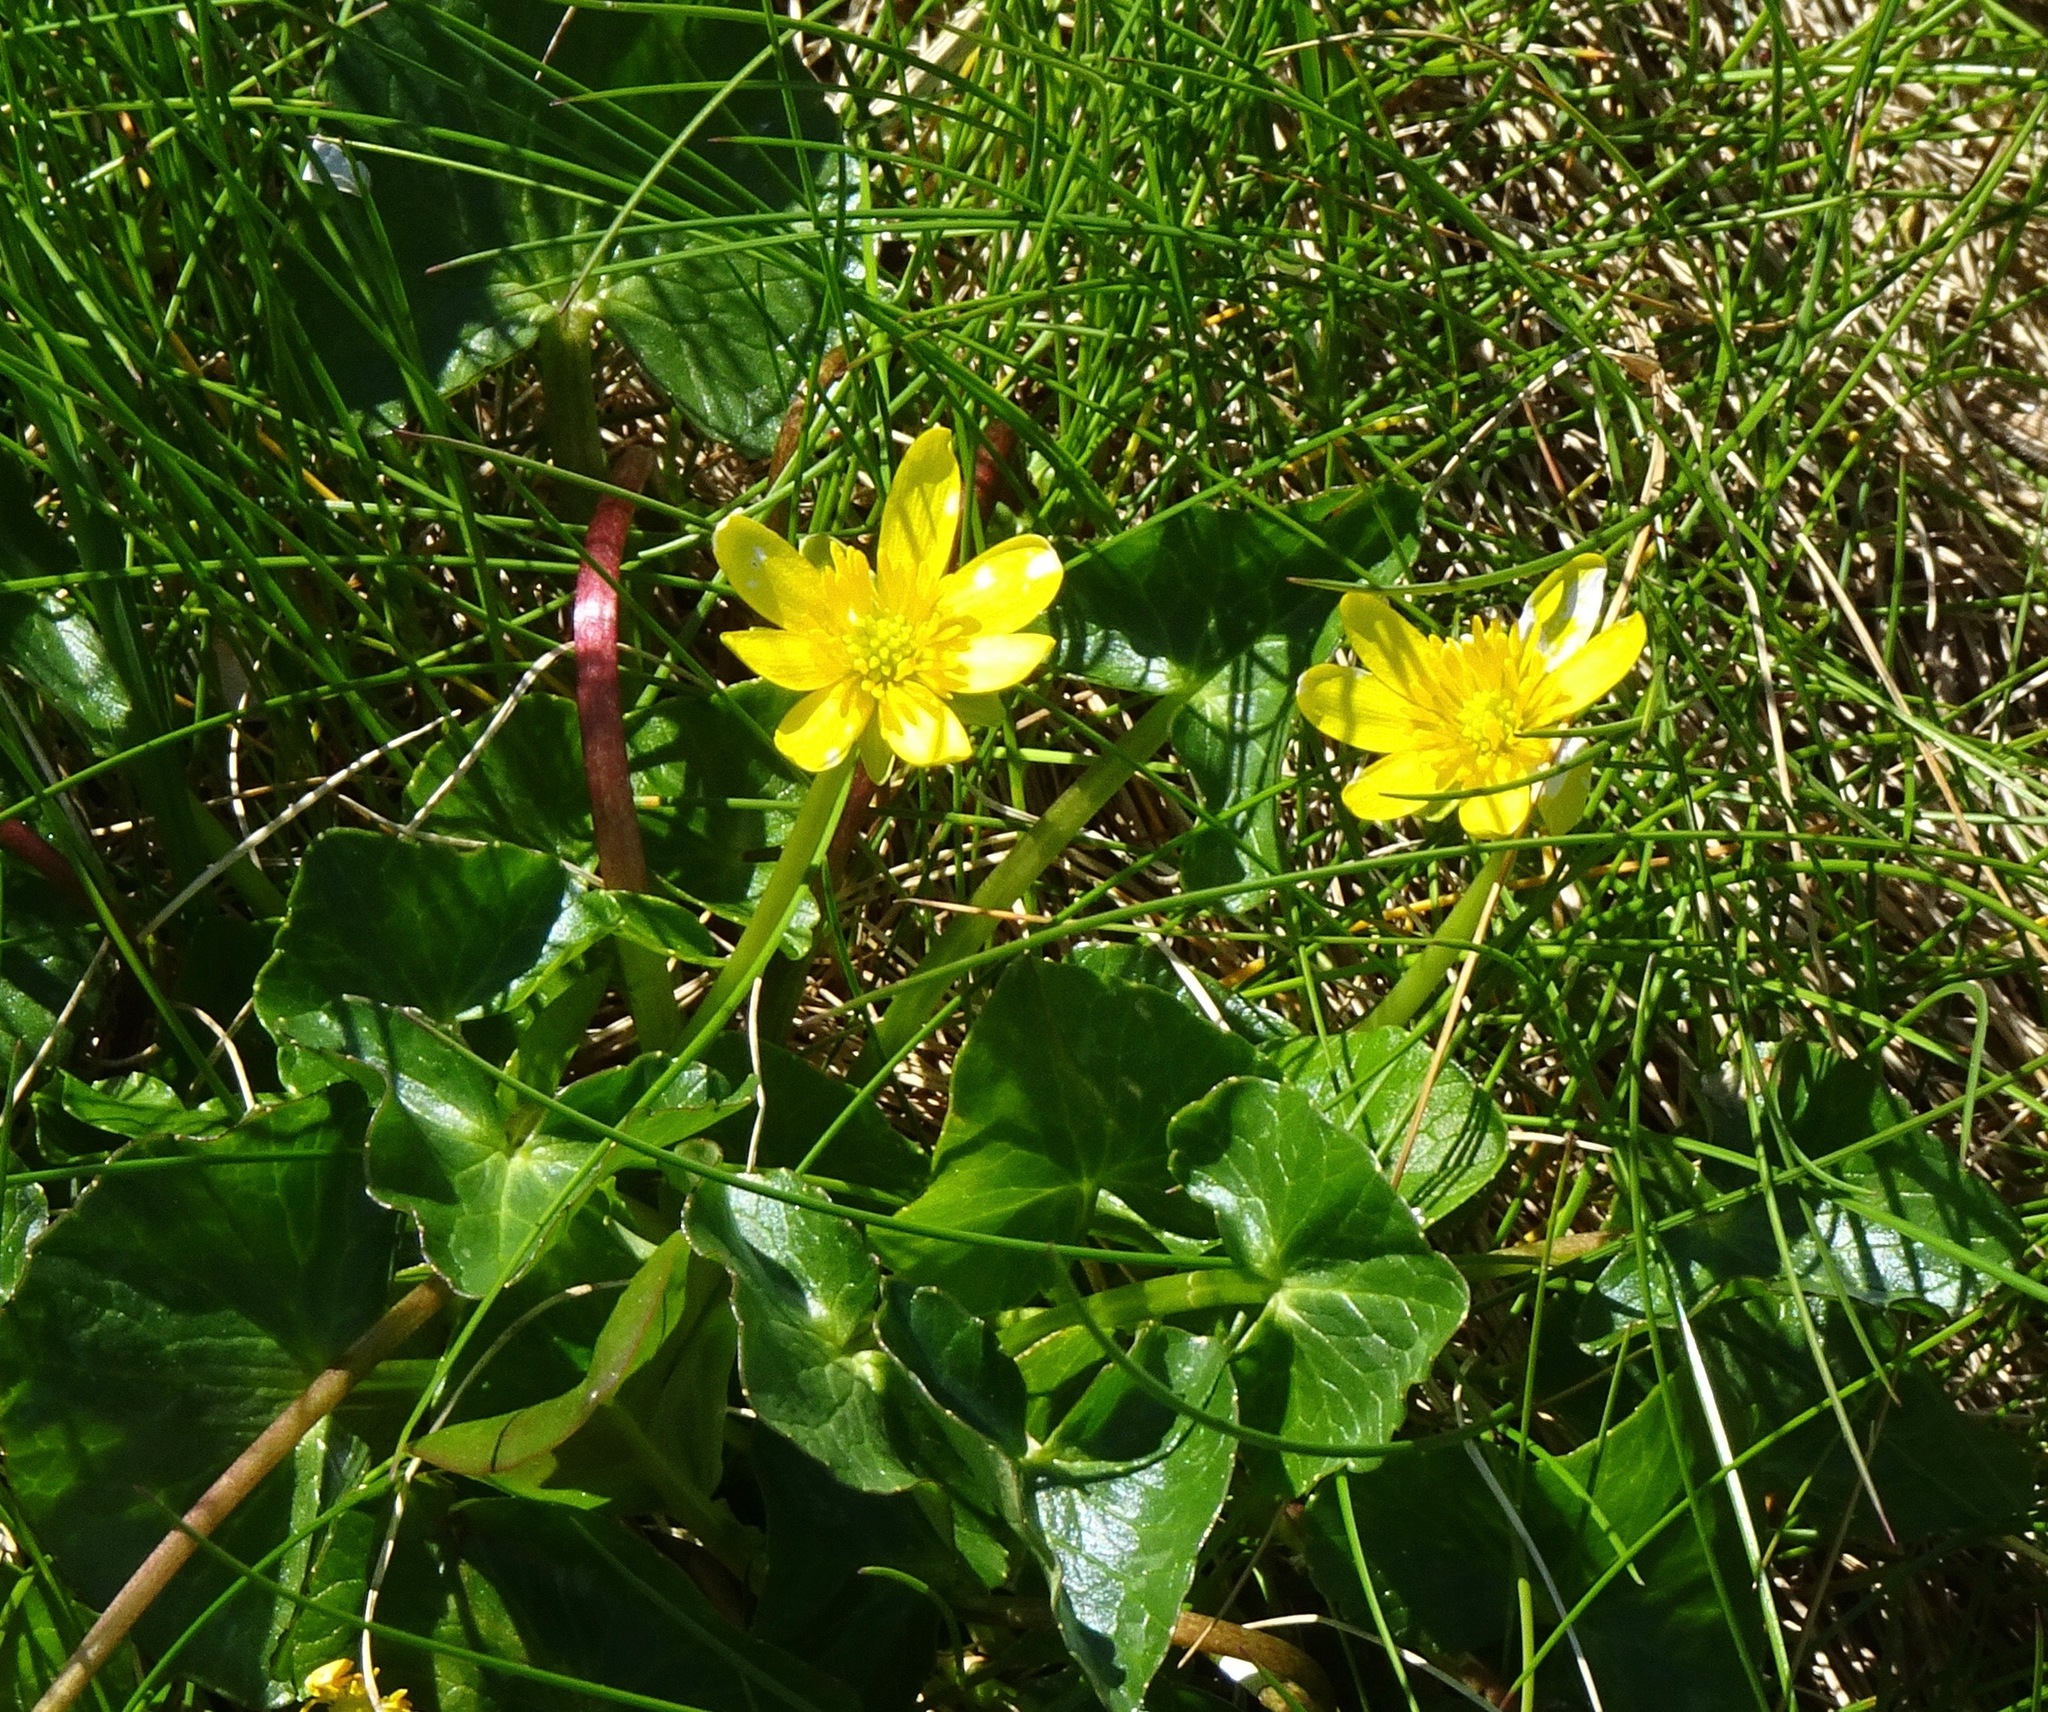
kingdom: Plantae
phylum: Tracheophyta
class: Magnoliopsida
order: Ranunculales
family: Ranunculaceae
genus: Ficaria
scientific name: Ficaria verna
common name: Lesser celandine
